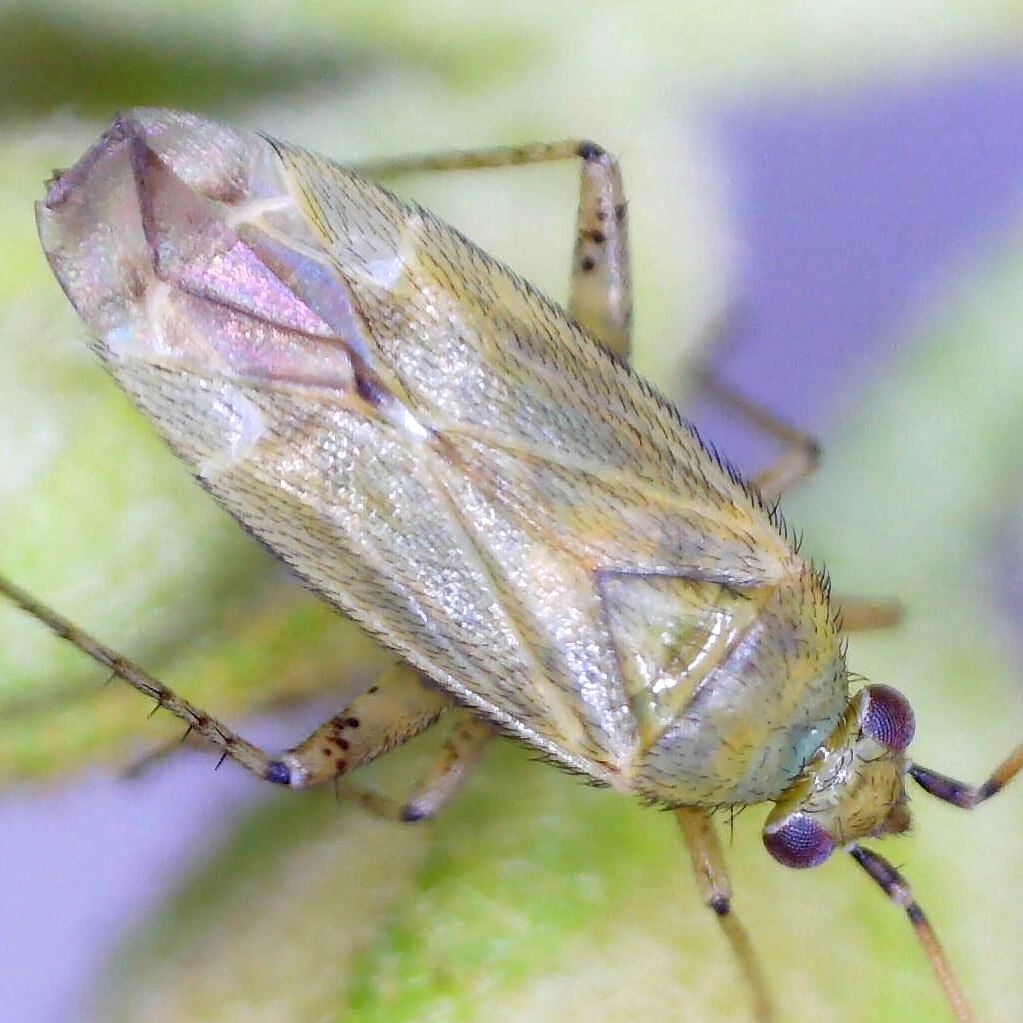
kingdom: Animalia
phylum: Arthropoda
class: Insecta
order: Hemiptera
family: Miridae
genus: Plagiognathus
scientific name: Plagiognathus chrysanthemi
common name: Plant bug
